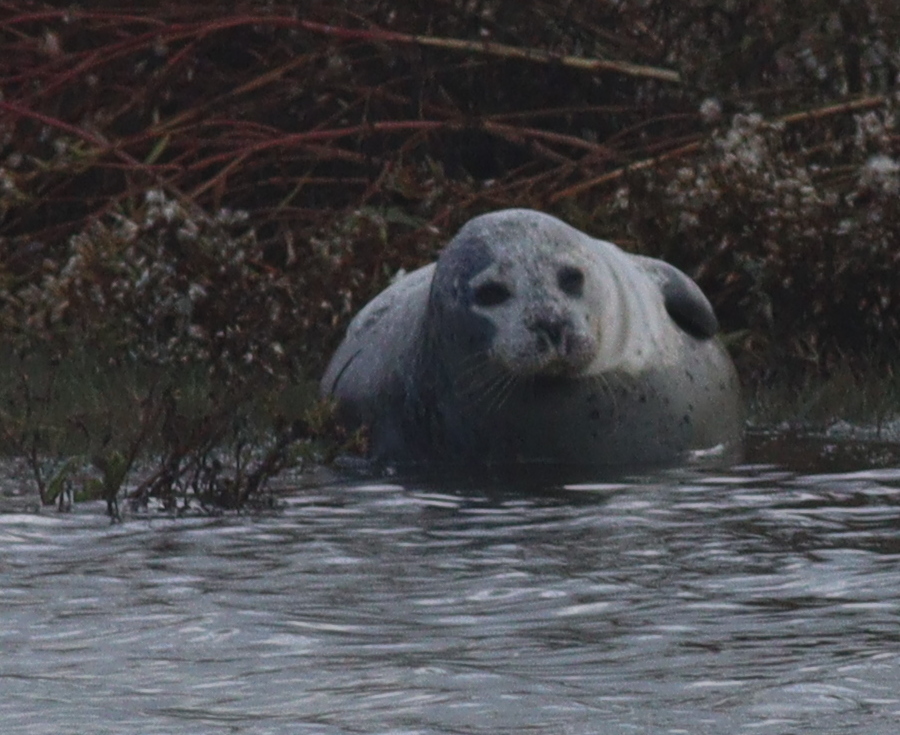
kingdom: Animalia
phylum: Chordata
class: Mammalia
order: Carnivora
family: Phocidae
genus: Phoca
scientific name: Phoca vitulina
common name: Harbor seal
